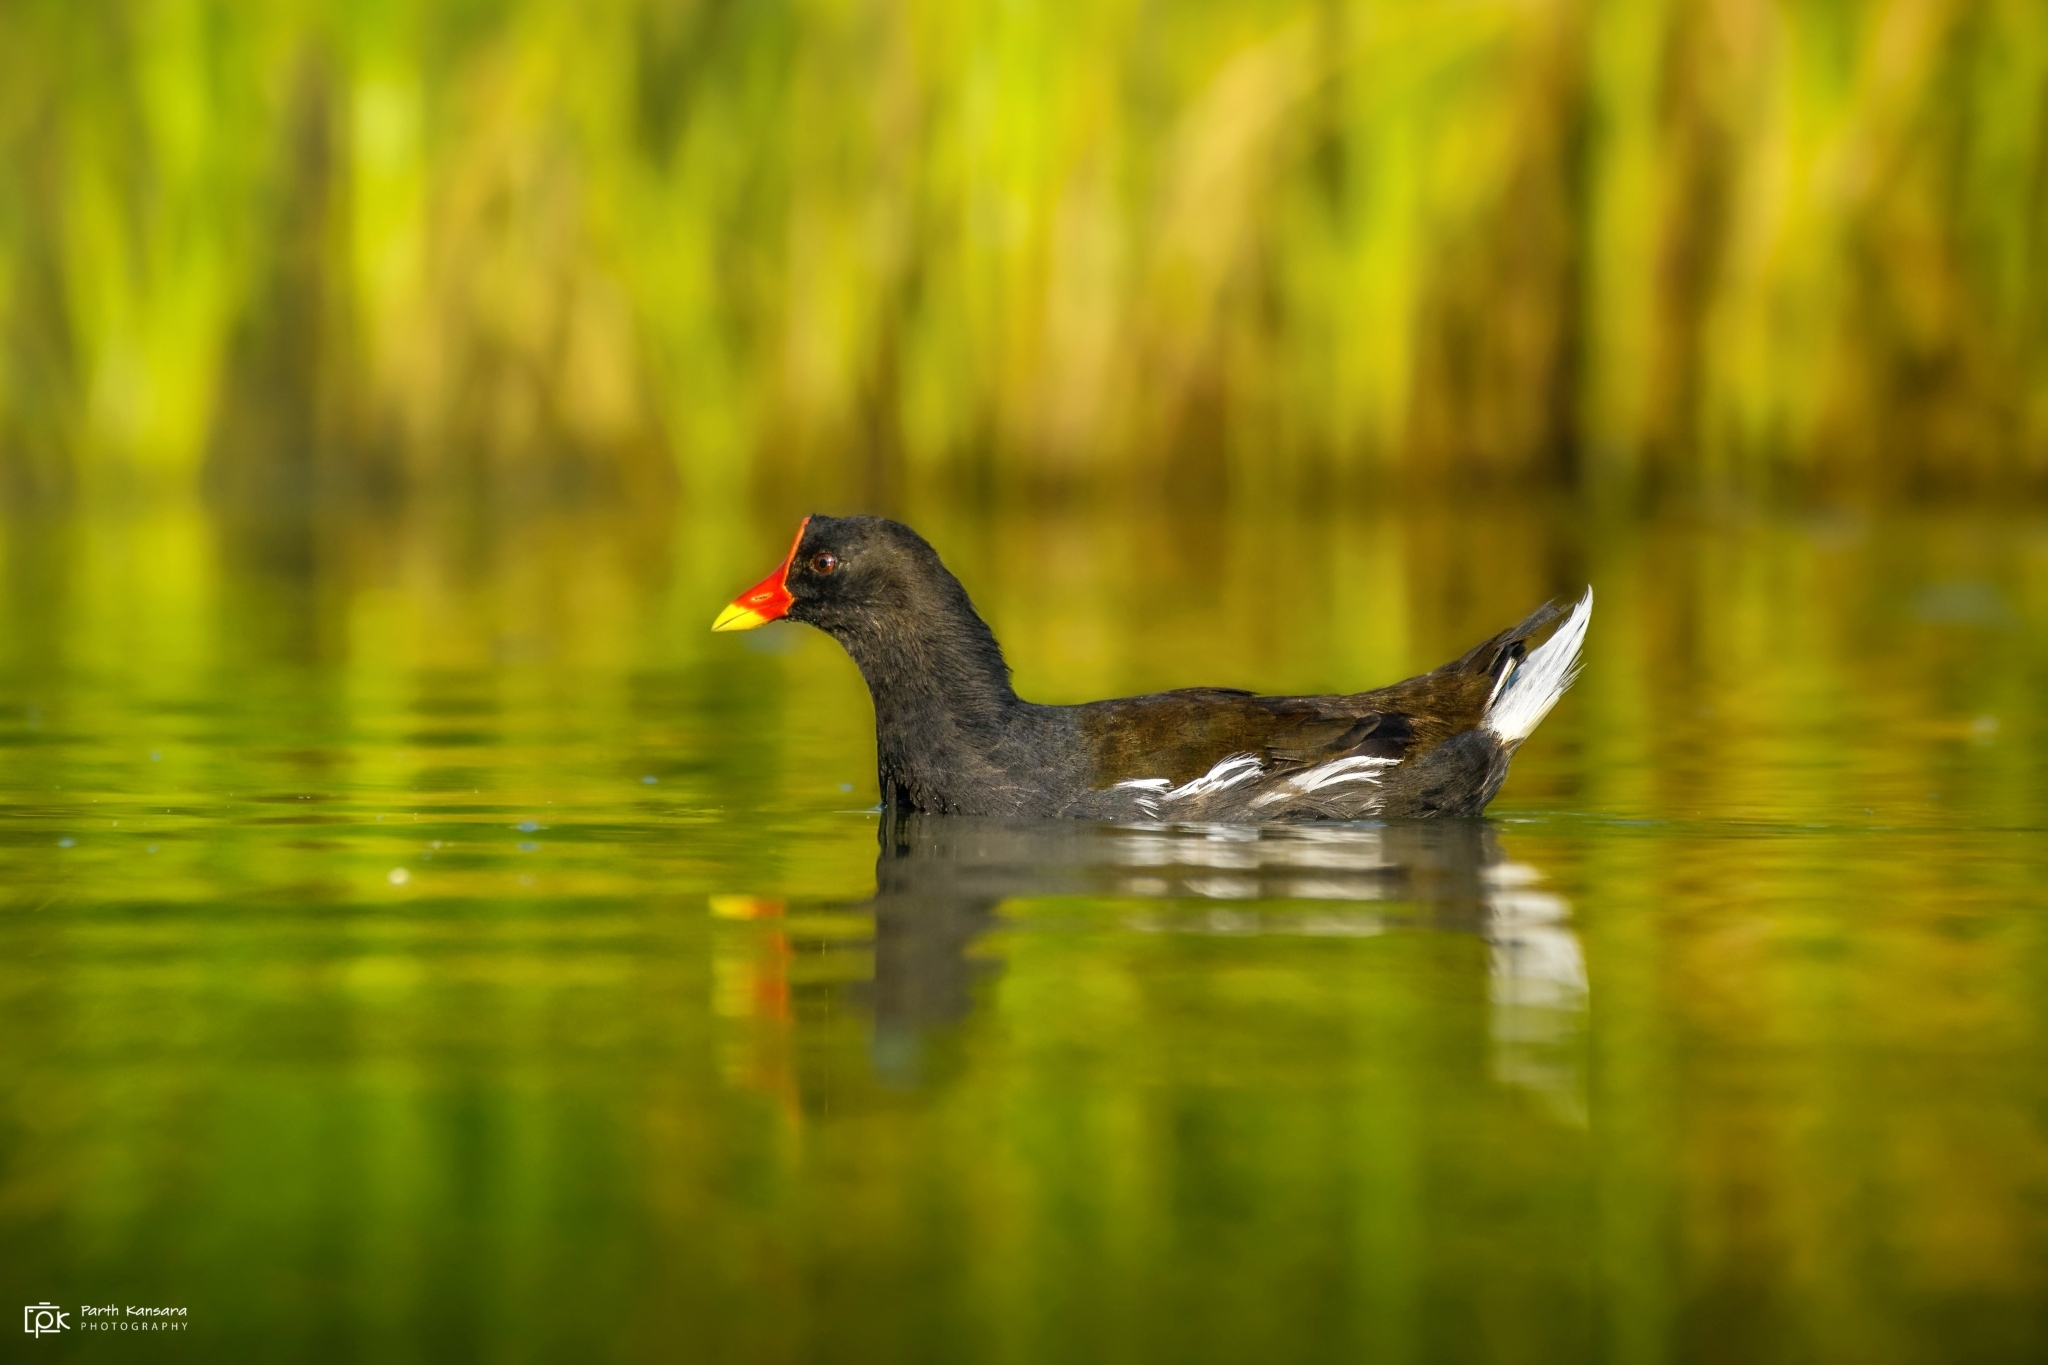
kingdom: Animalia
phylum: Chordata
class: Aves
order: Gruiformes
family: Rallidae
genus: Gallinula
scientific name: Gallinula chloropus
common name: Common moorhen
